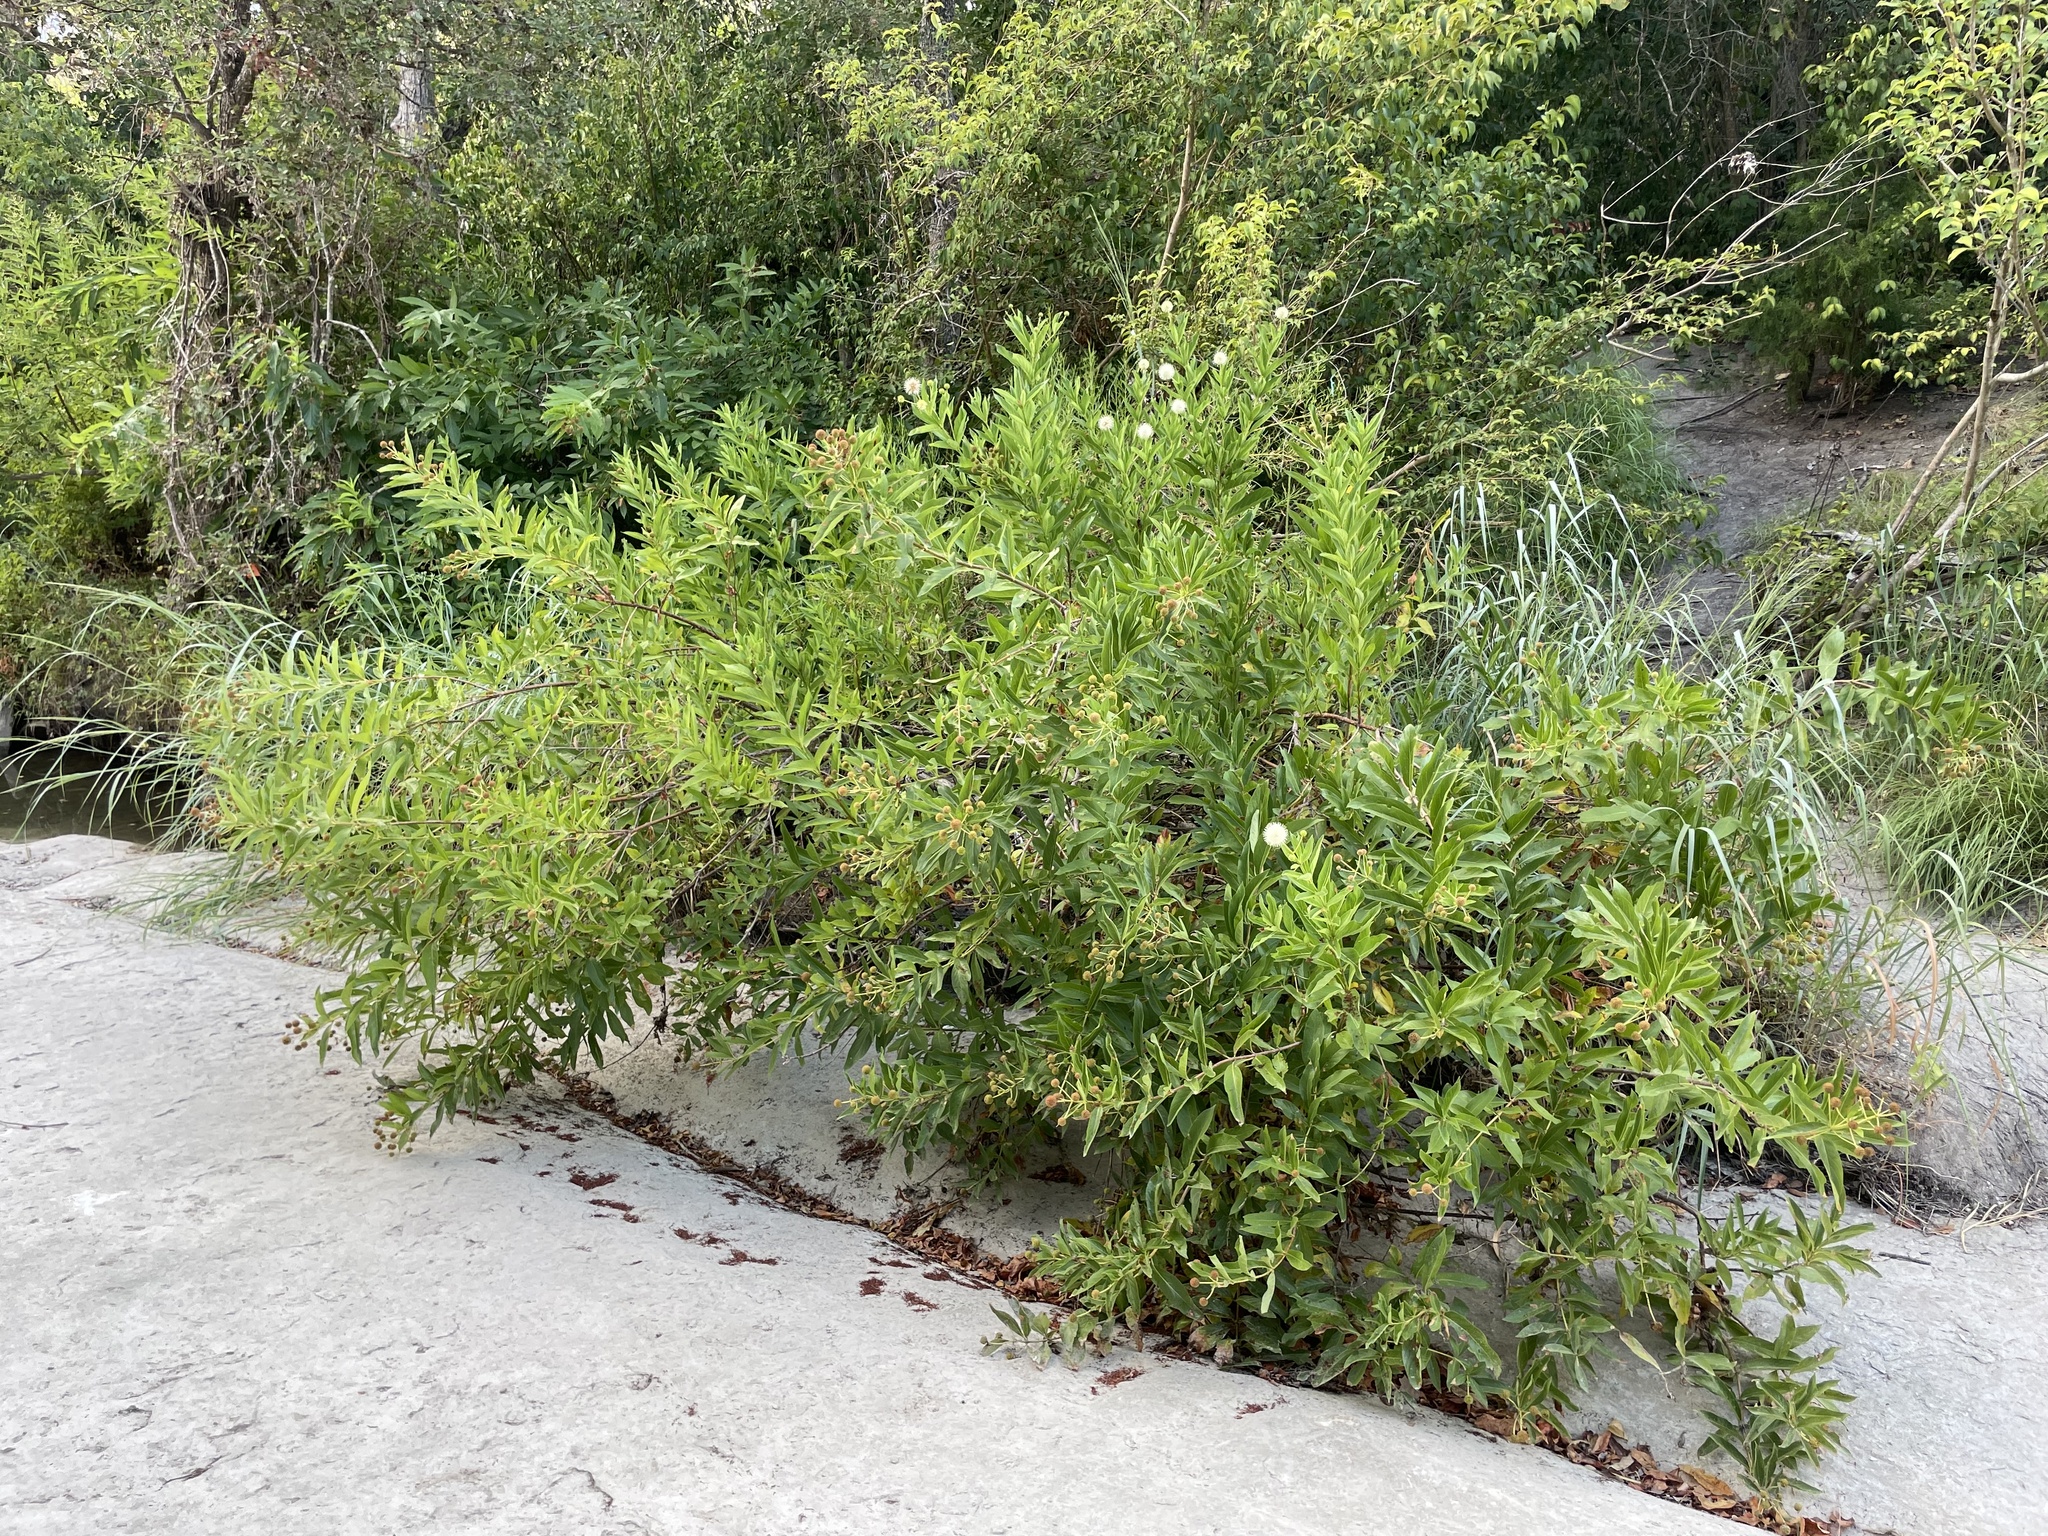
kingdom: Plantae
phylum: Tracheophyta
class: Magnoliopsida
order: Gentianales
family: Rubiaceae
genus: Cephalanthus
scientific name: Cephalanthus occidentalis
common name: Button-willow
